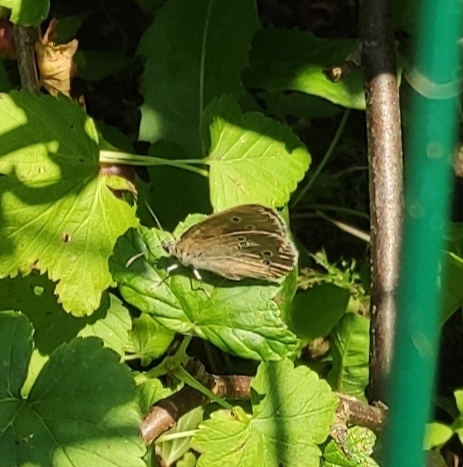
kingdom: Animalia
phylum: Arthropoda
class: Insecta
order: Lepidoptera
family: Nymphalidae
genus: Aphantopus
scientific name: Aphantopus hyperantus
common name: Ringlet
